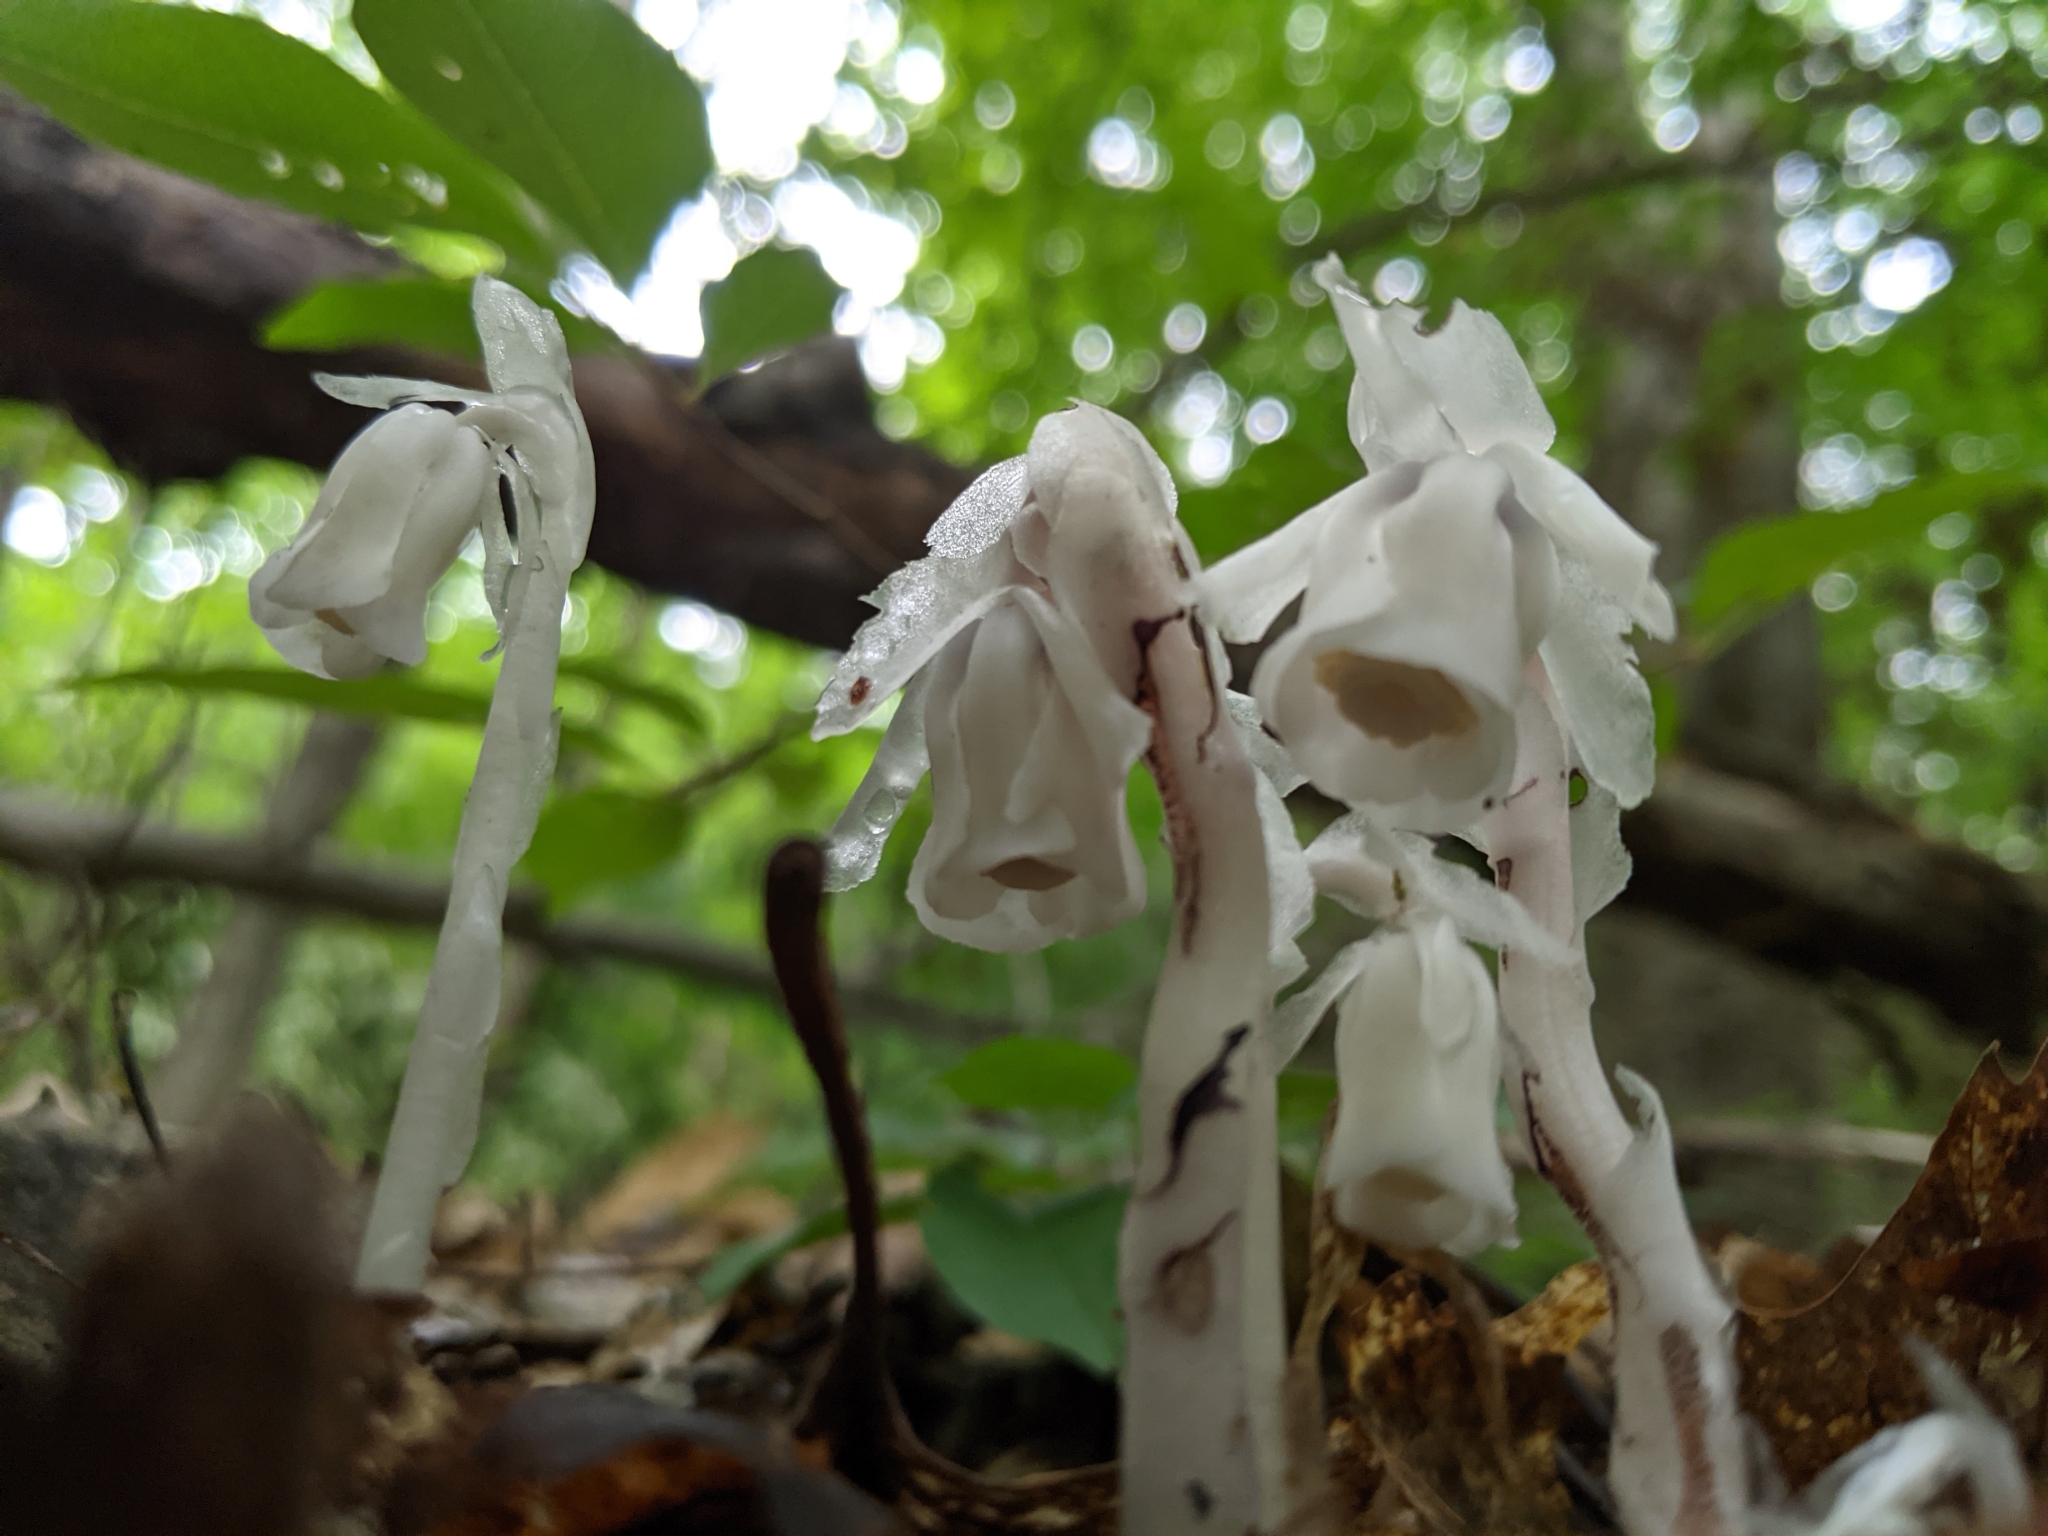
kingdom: Plantae
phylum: Tracheophyta
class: Magnoliopsida
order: Ericales
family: Ericaceae
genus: Monotropa
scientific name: Monotropa uniflora
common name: Convulsion root
